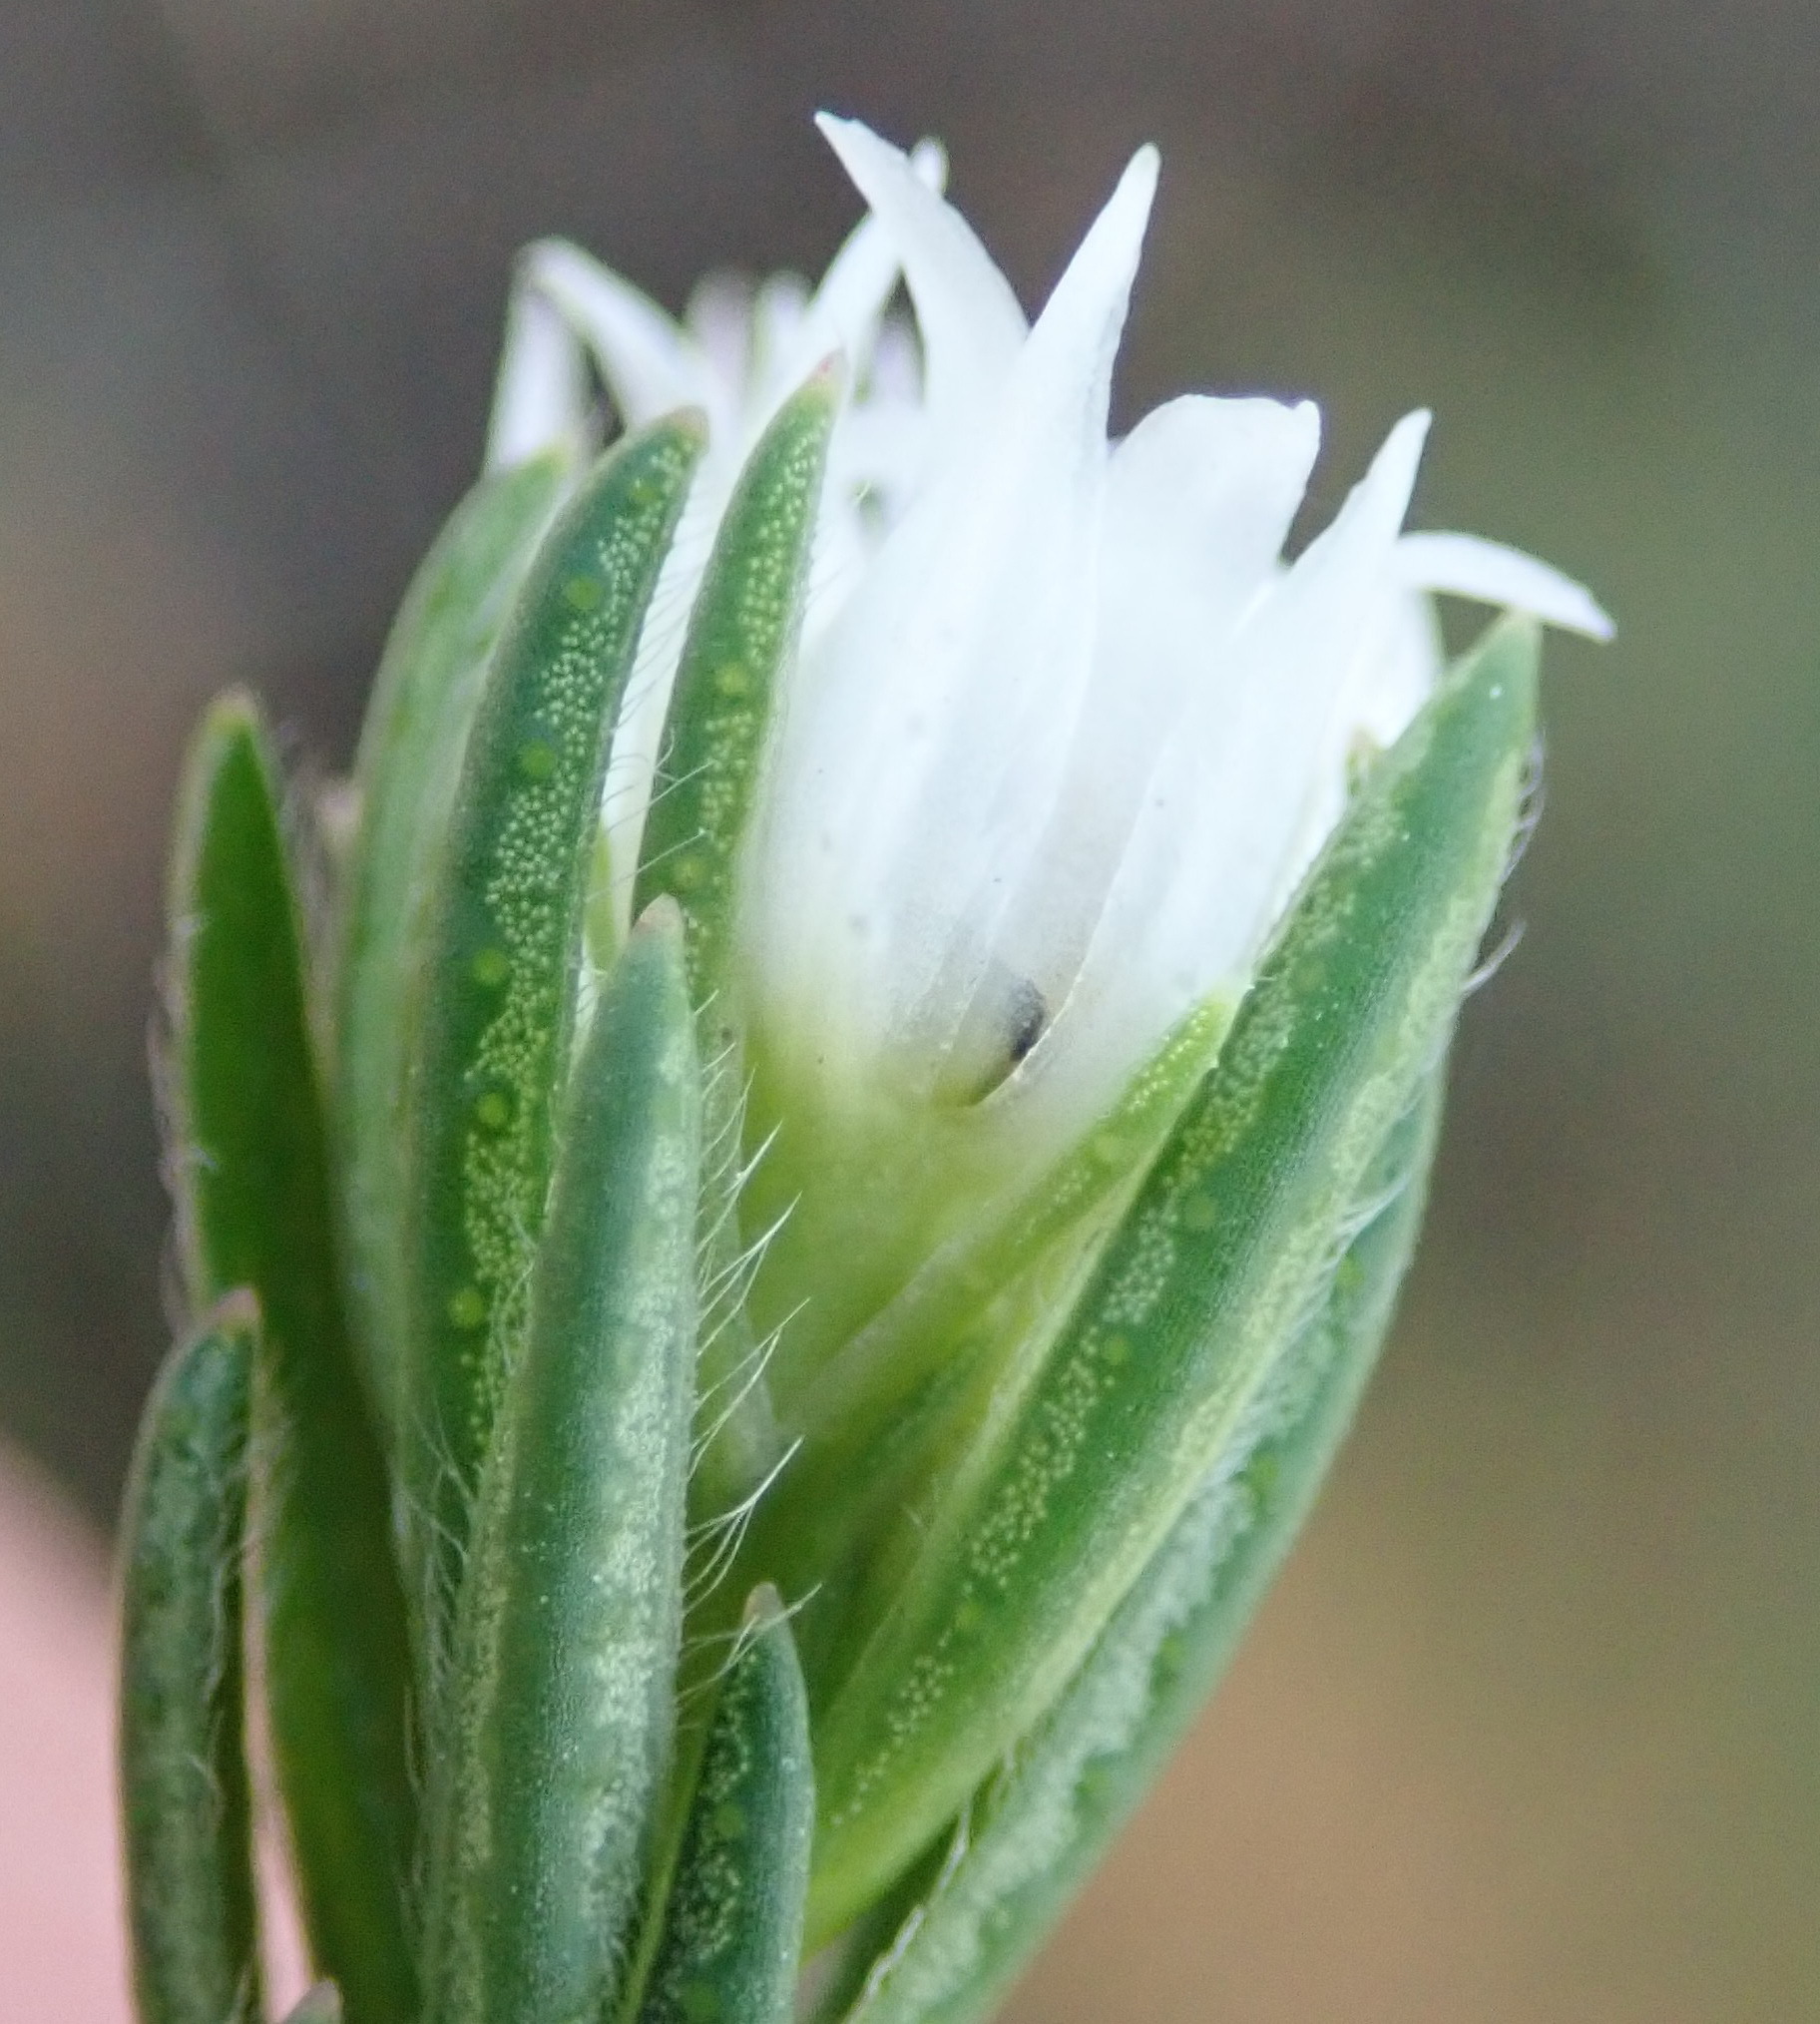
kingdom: Plantae
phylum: Tracheophyta
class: Magnoliopsida
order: Sapindales
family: Rutaceae
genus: Euchaetis
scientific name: Euchaetis avisylvana
